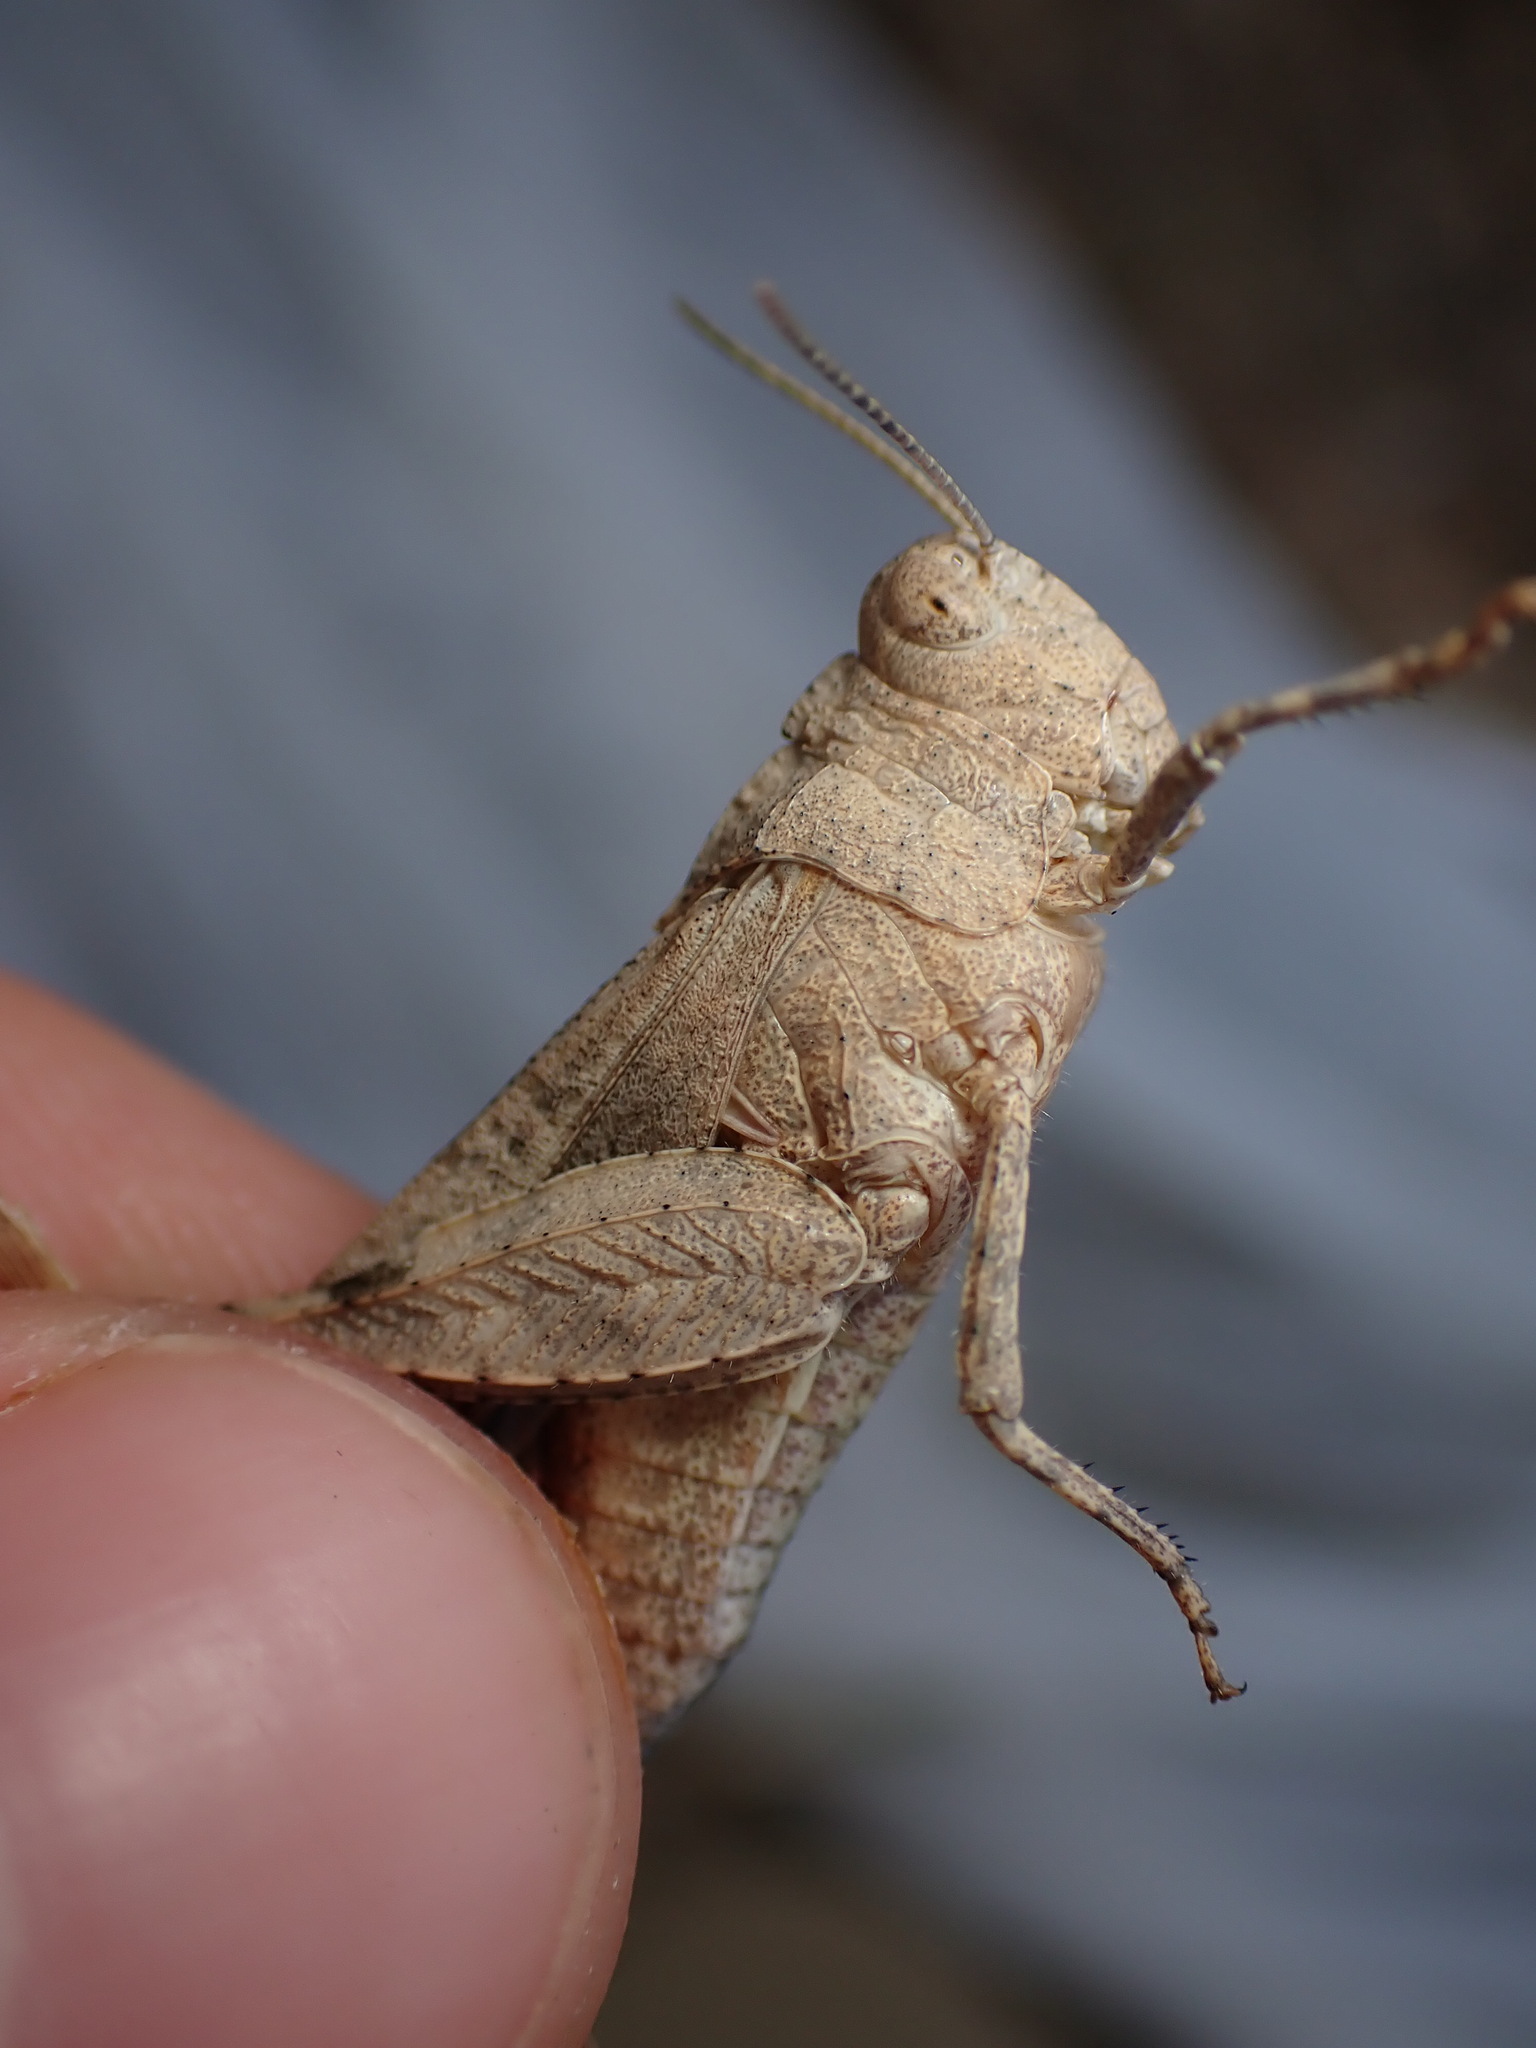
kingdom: Animalia
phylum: Arthropoda
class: Insecta
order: Orthoptera
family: Acrididae
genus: Oedipoda
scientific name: Oedipoda caerulescens
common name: Blue-winged grasshopper
